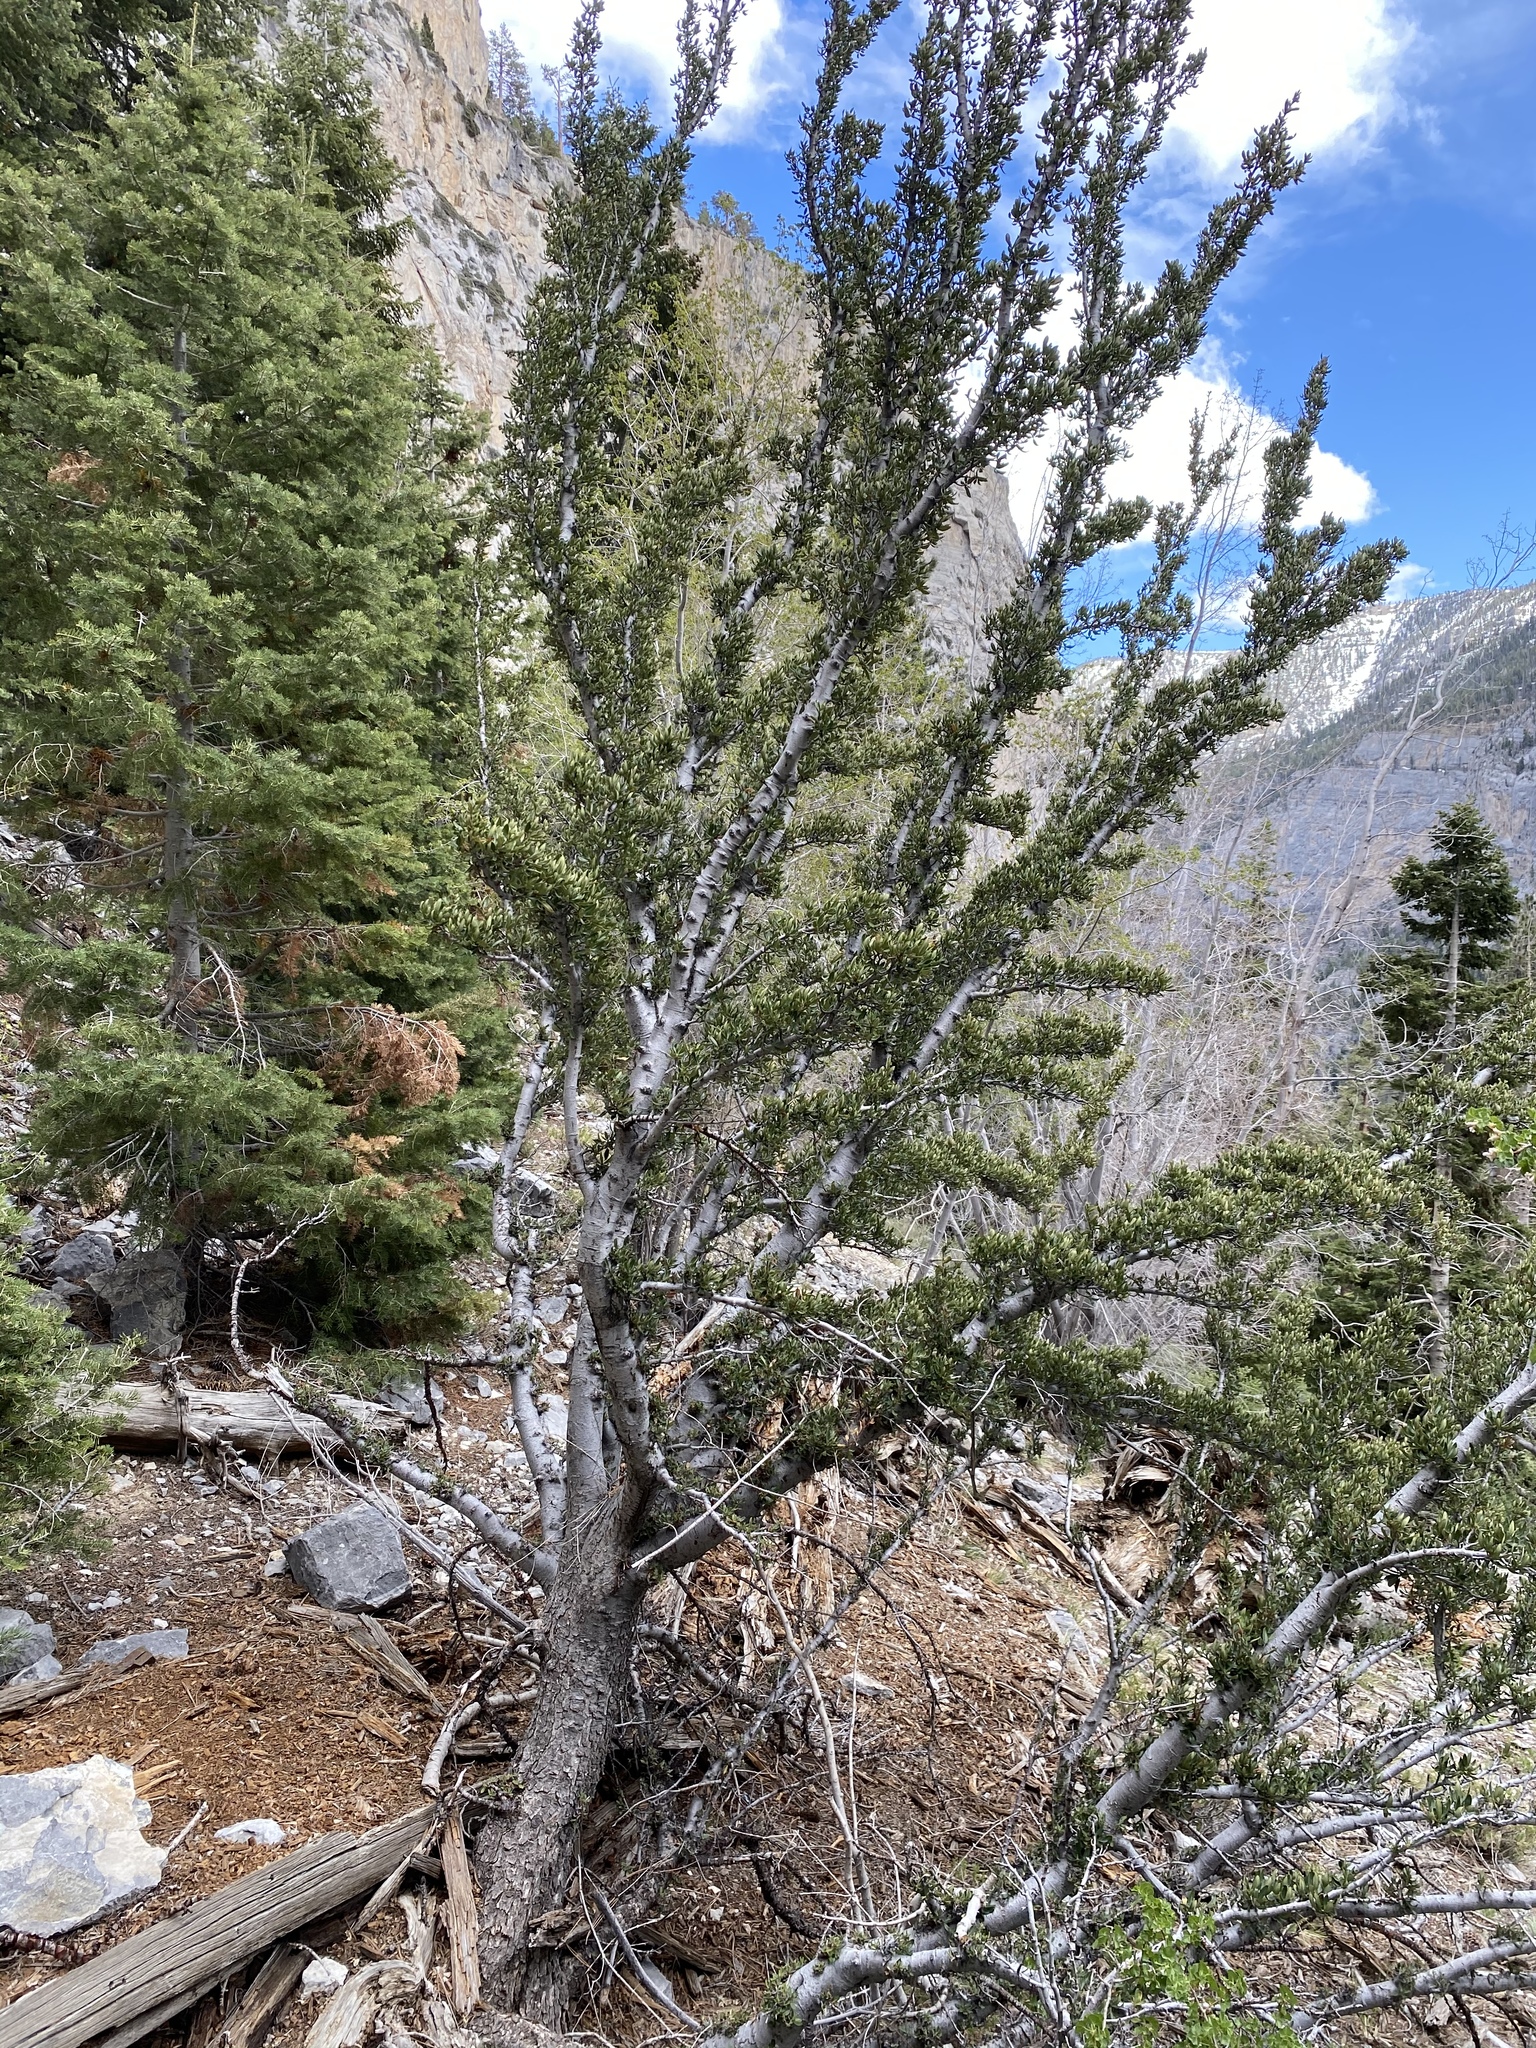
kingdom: Plantae
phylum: Tracheophyta
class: Magnoliopsida
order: Rosales
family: Rosaceae
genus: Cercocarpus
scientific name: Cercocarpus ledifolius
